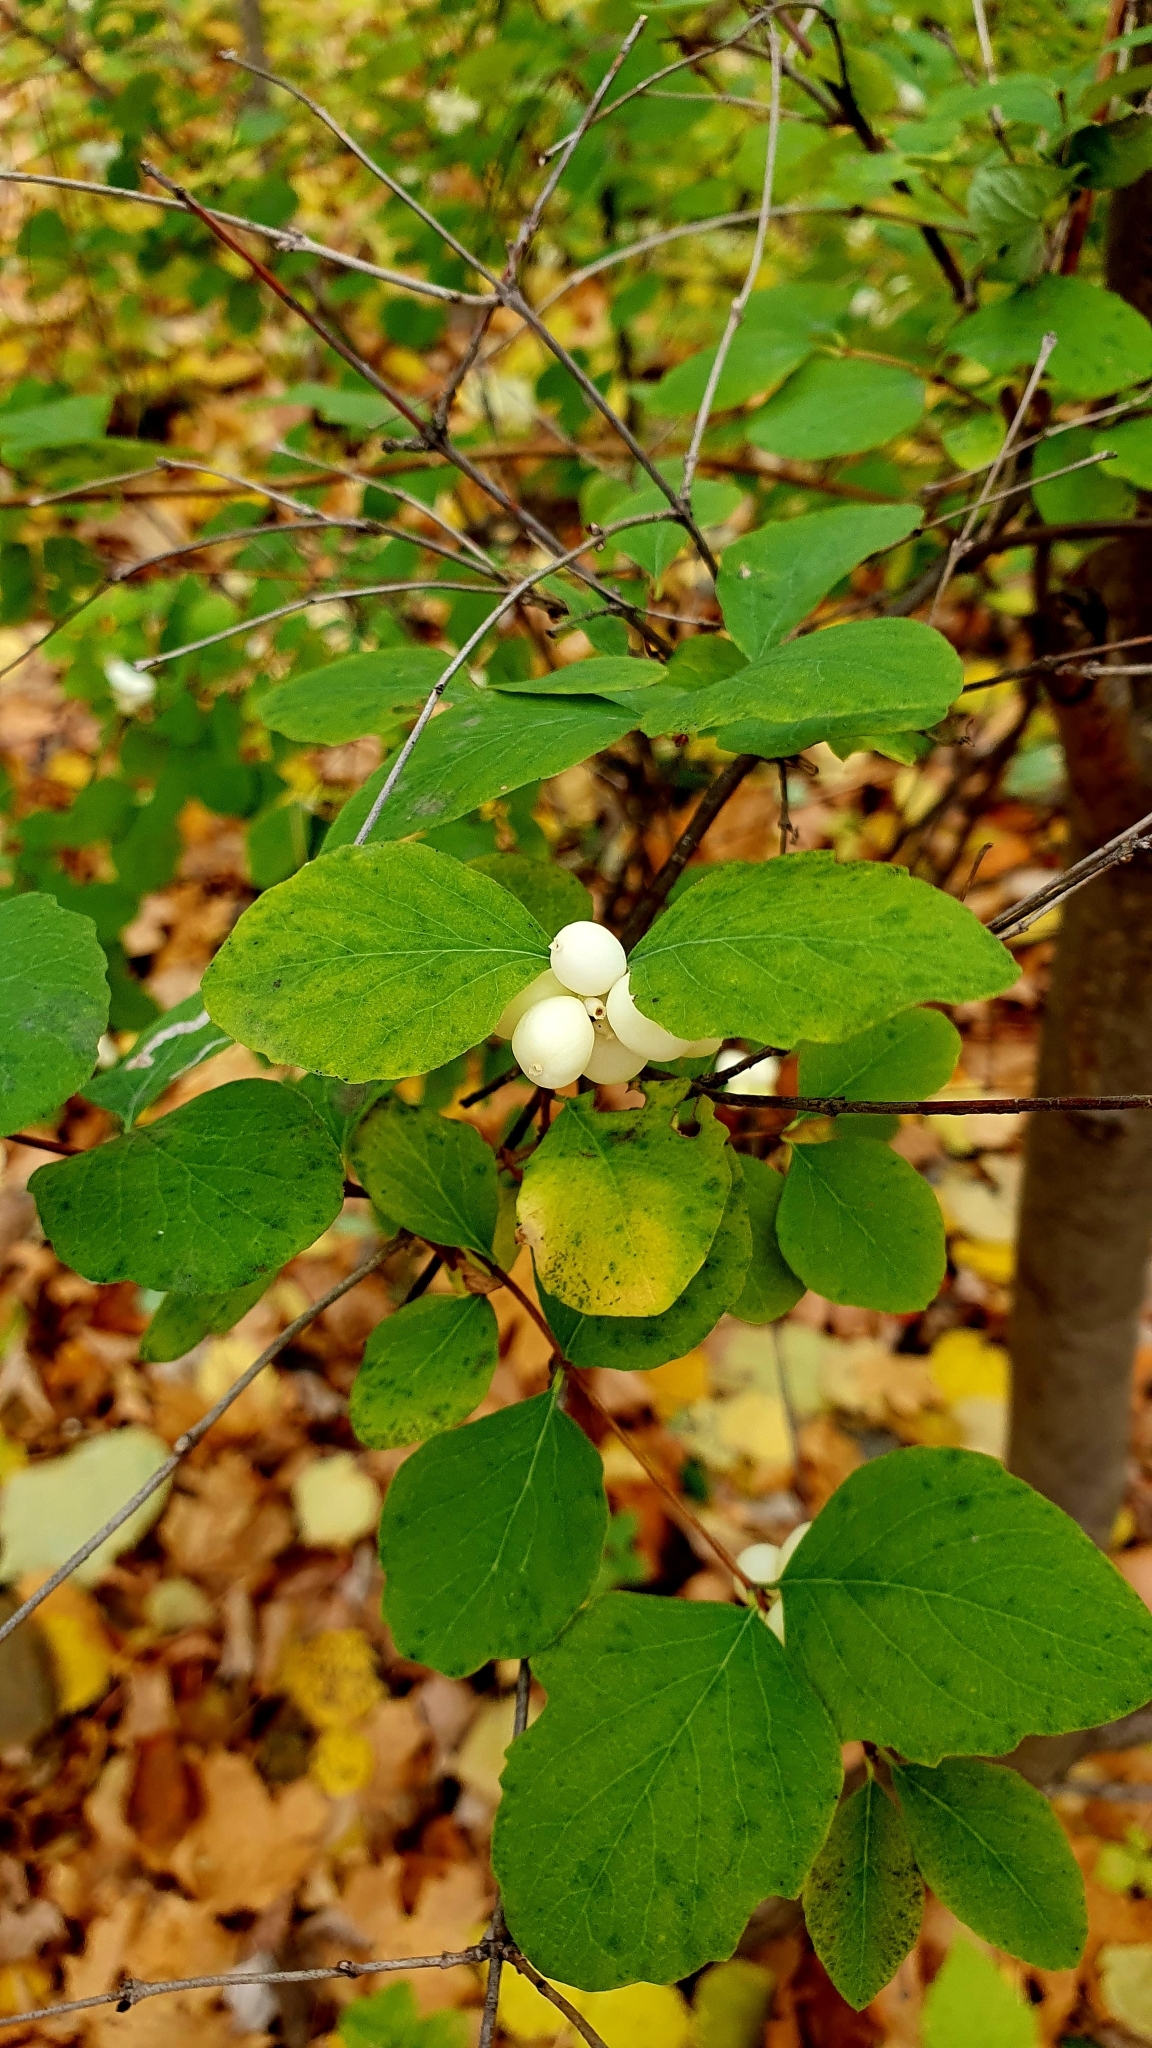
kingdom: Plantae
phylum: Tracheophyta
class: Magnoliopsida
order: Dipsacales
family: Caprifoliaceae
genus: Symphoricarpos
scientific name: Symphoricarpos albus
